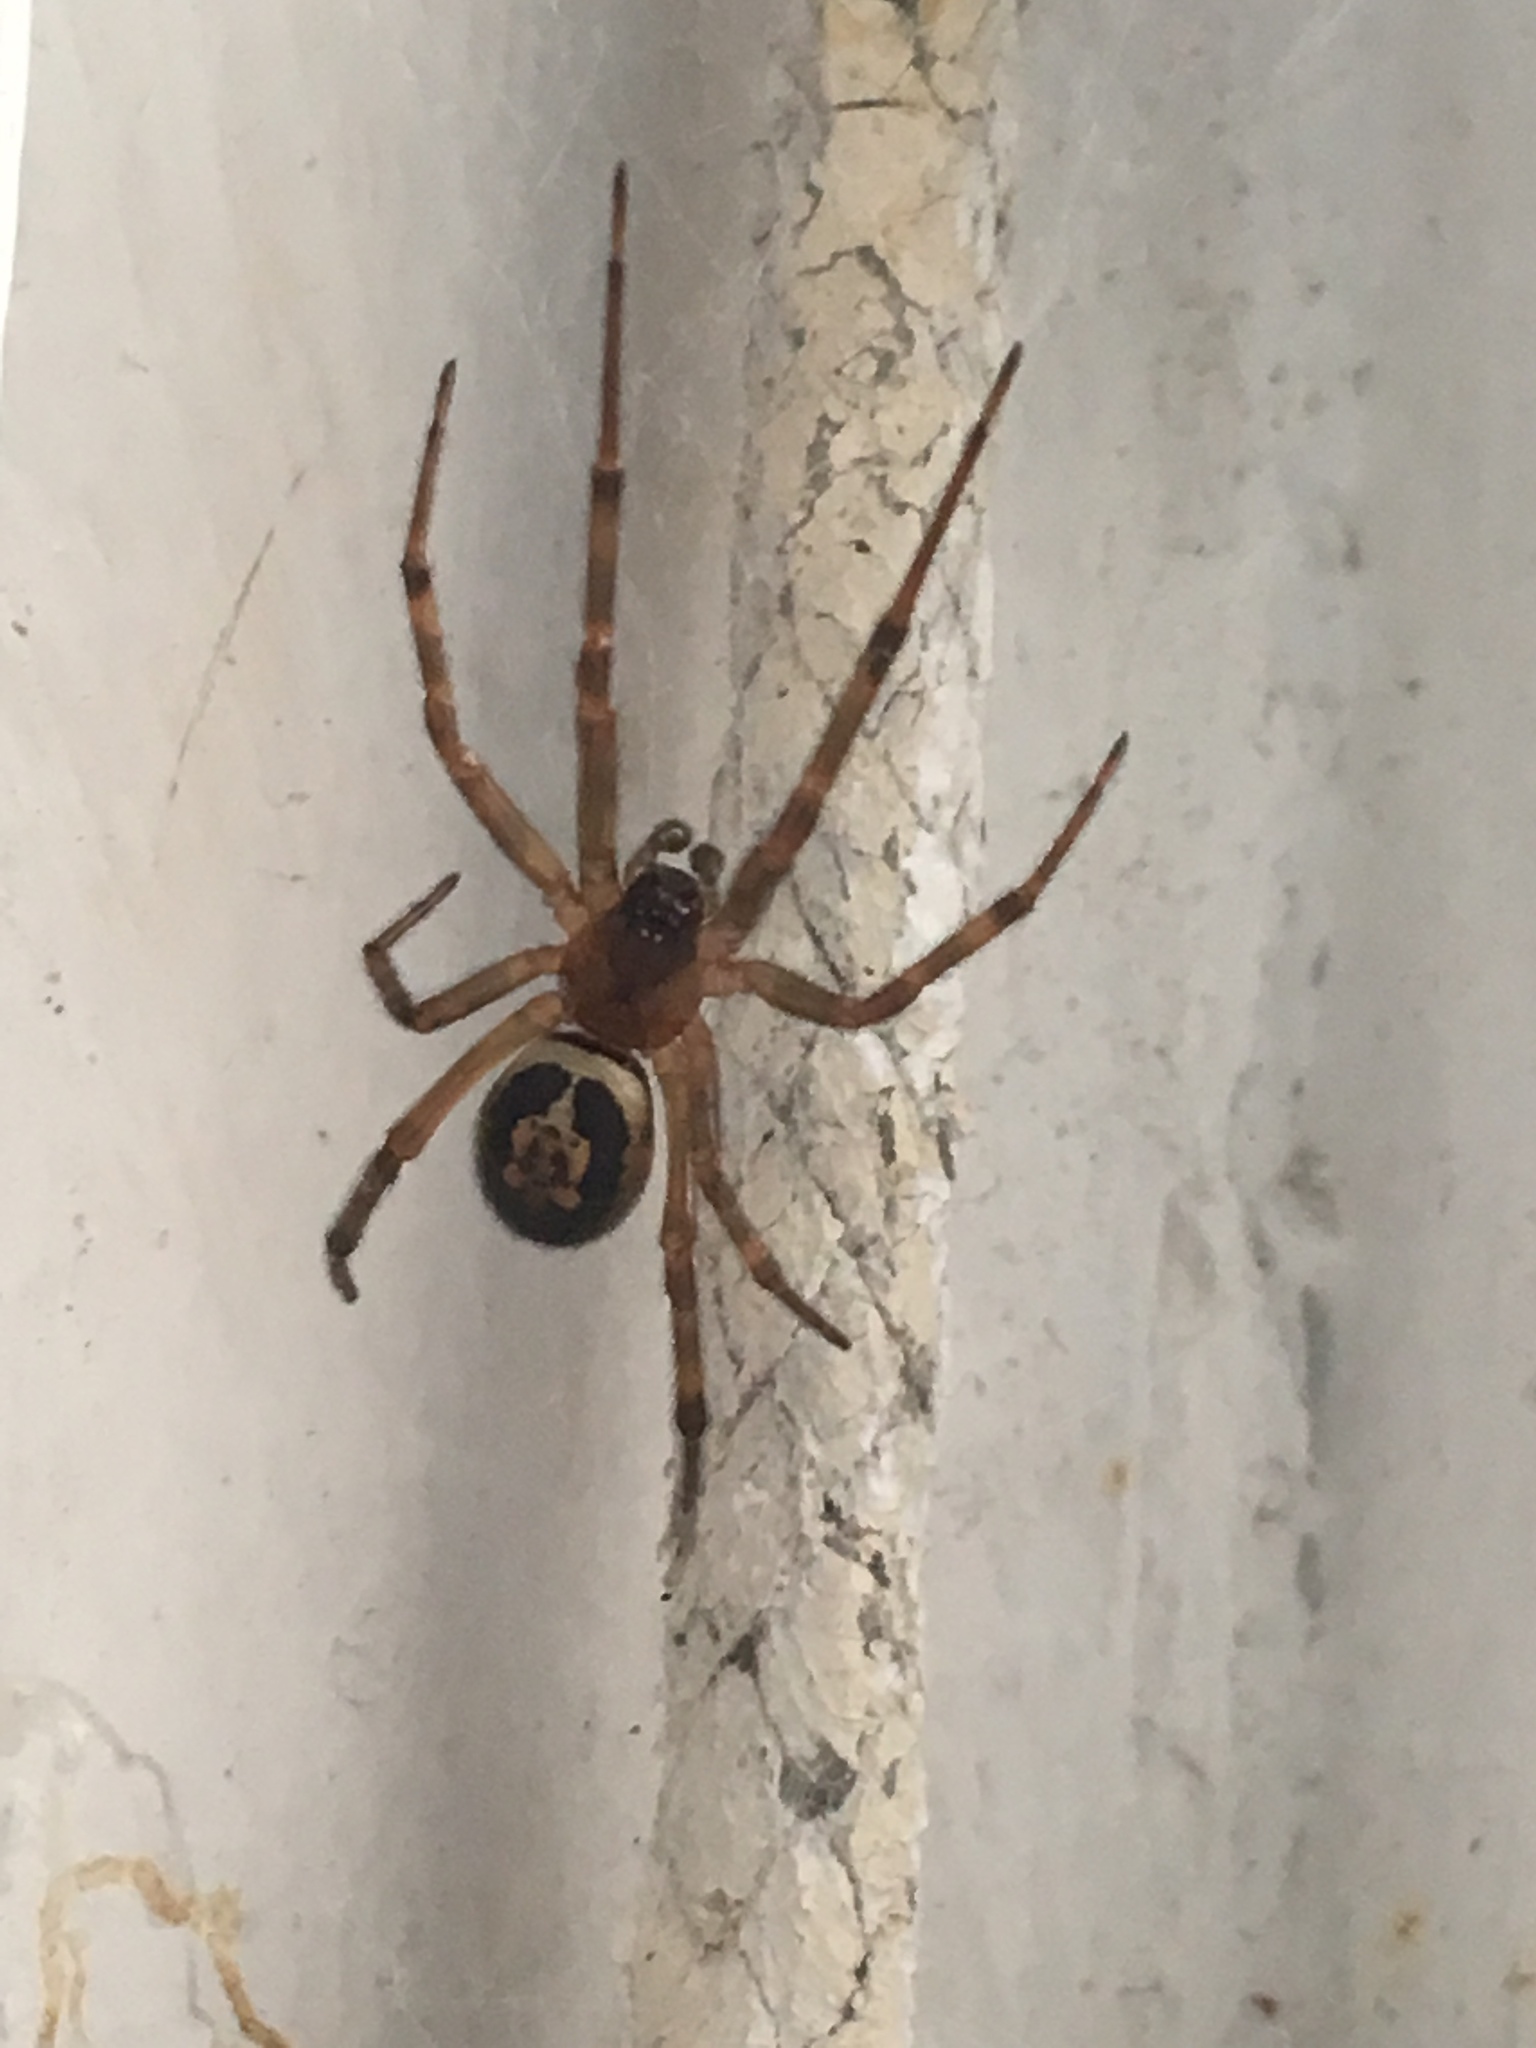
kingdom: Animalia
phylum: Arthropoda
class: Arachnida
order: Araneae
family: Theridiidae
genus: Steatoda
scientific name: Steatoda nobilis
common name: Cobweb weaver
